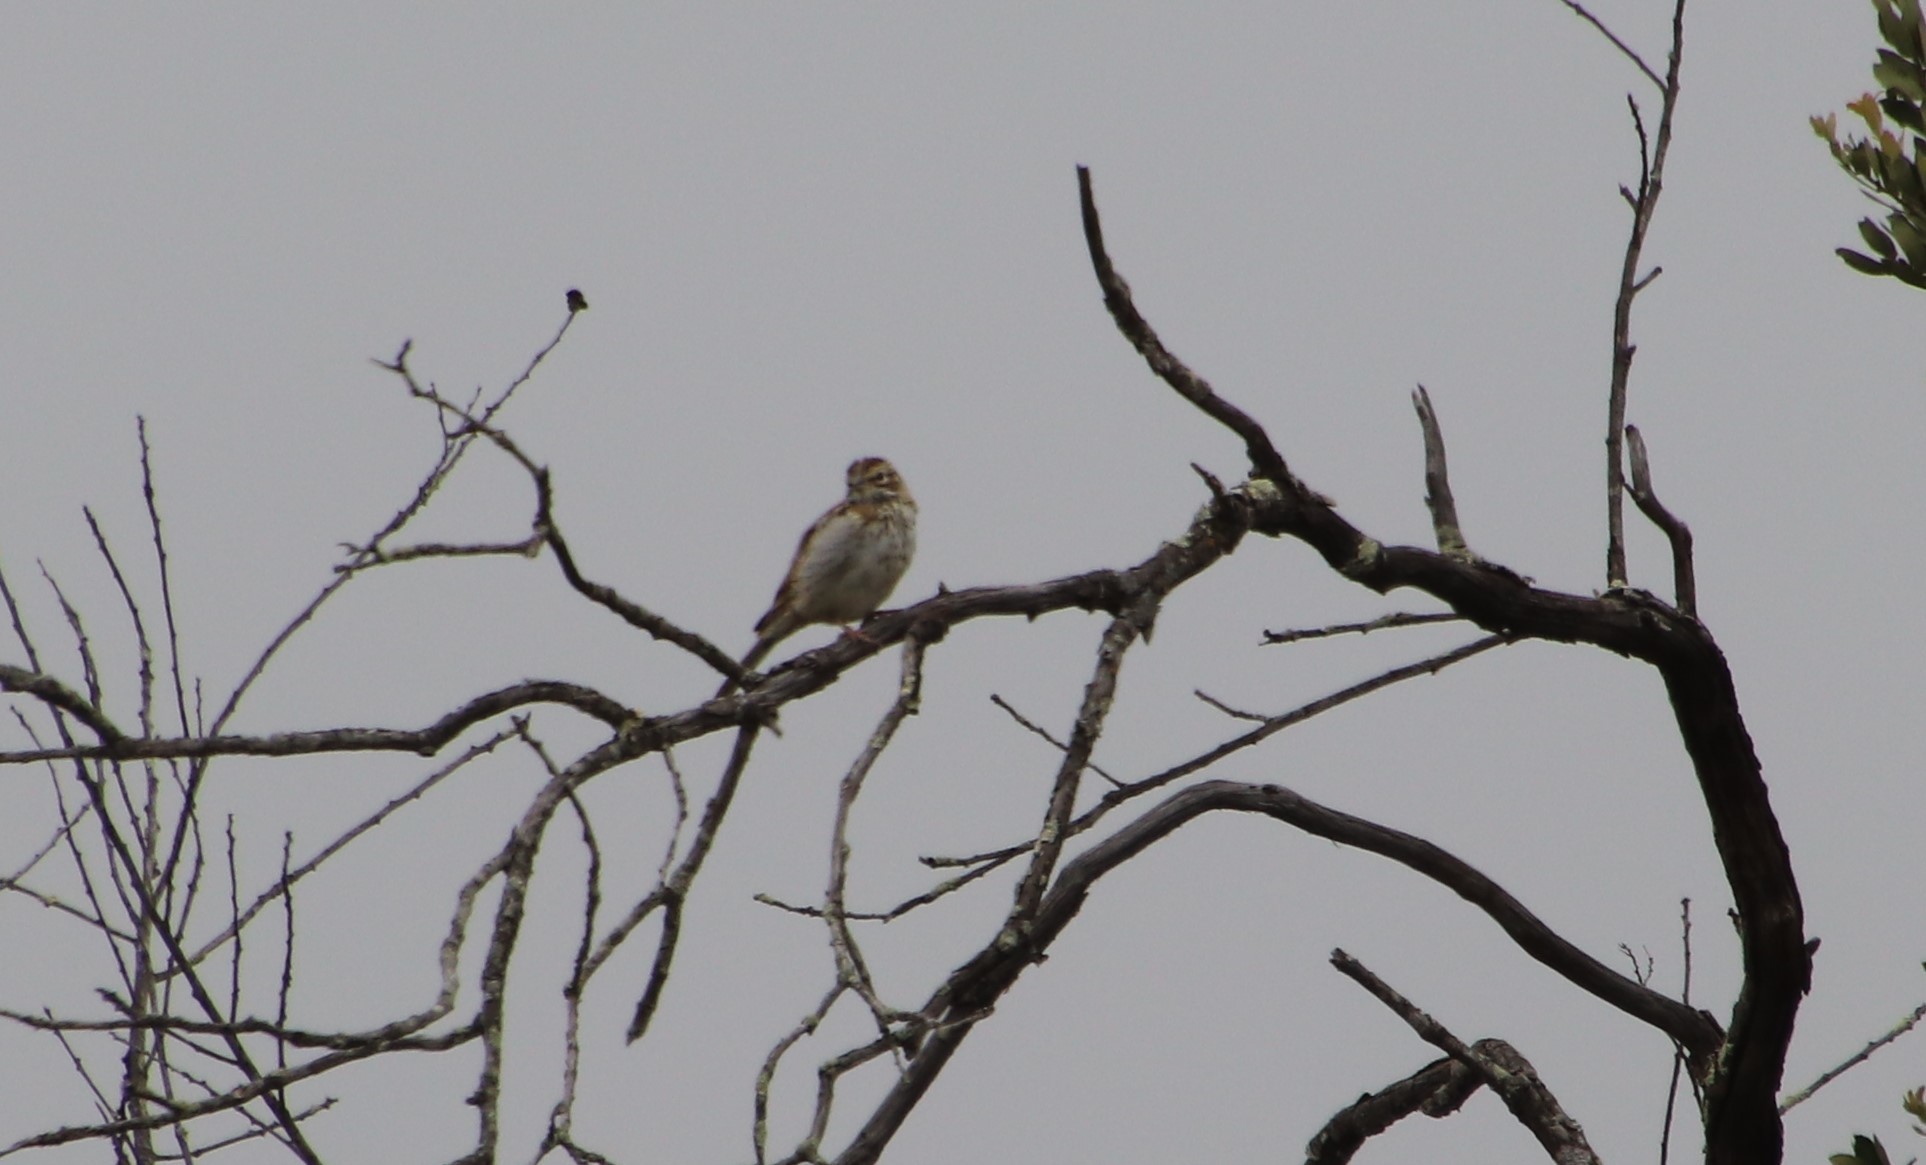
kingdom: Animalia
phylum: Chordata
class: Aves
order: Passeriformes
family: Passerellidae
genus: Chondestes
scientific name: Chondestes grammacus
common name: Lark sparrow
